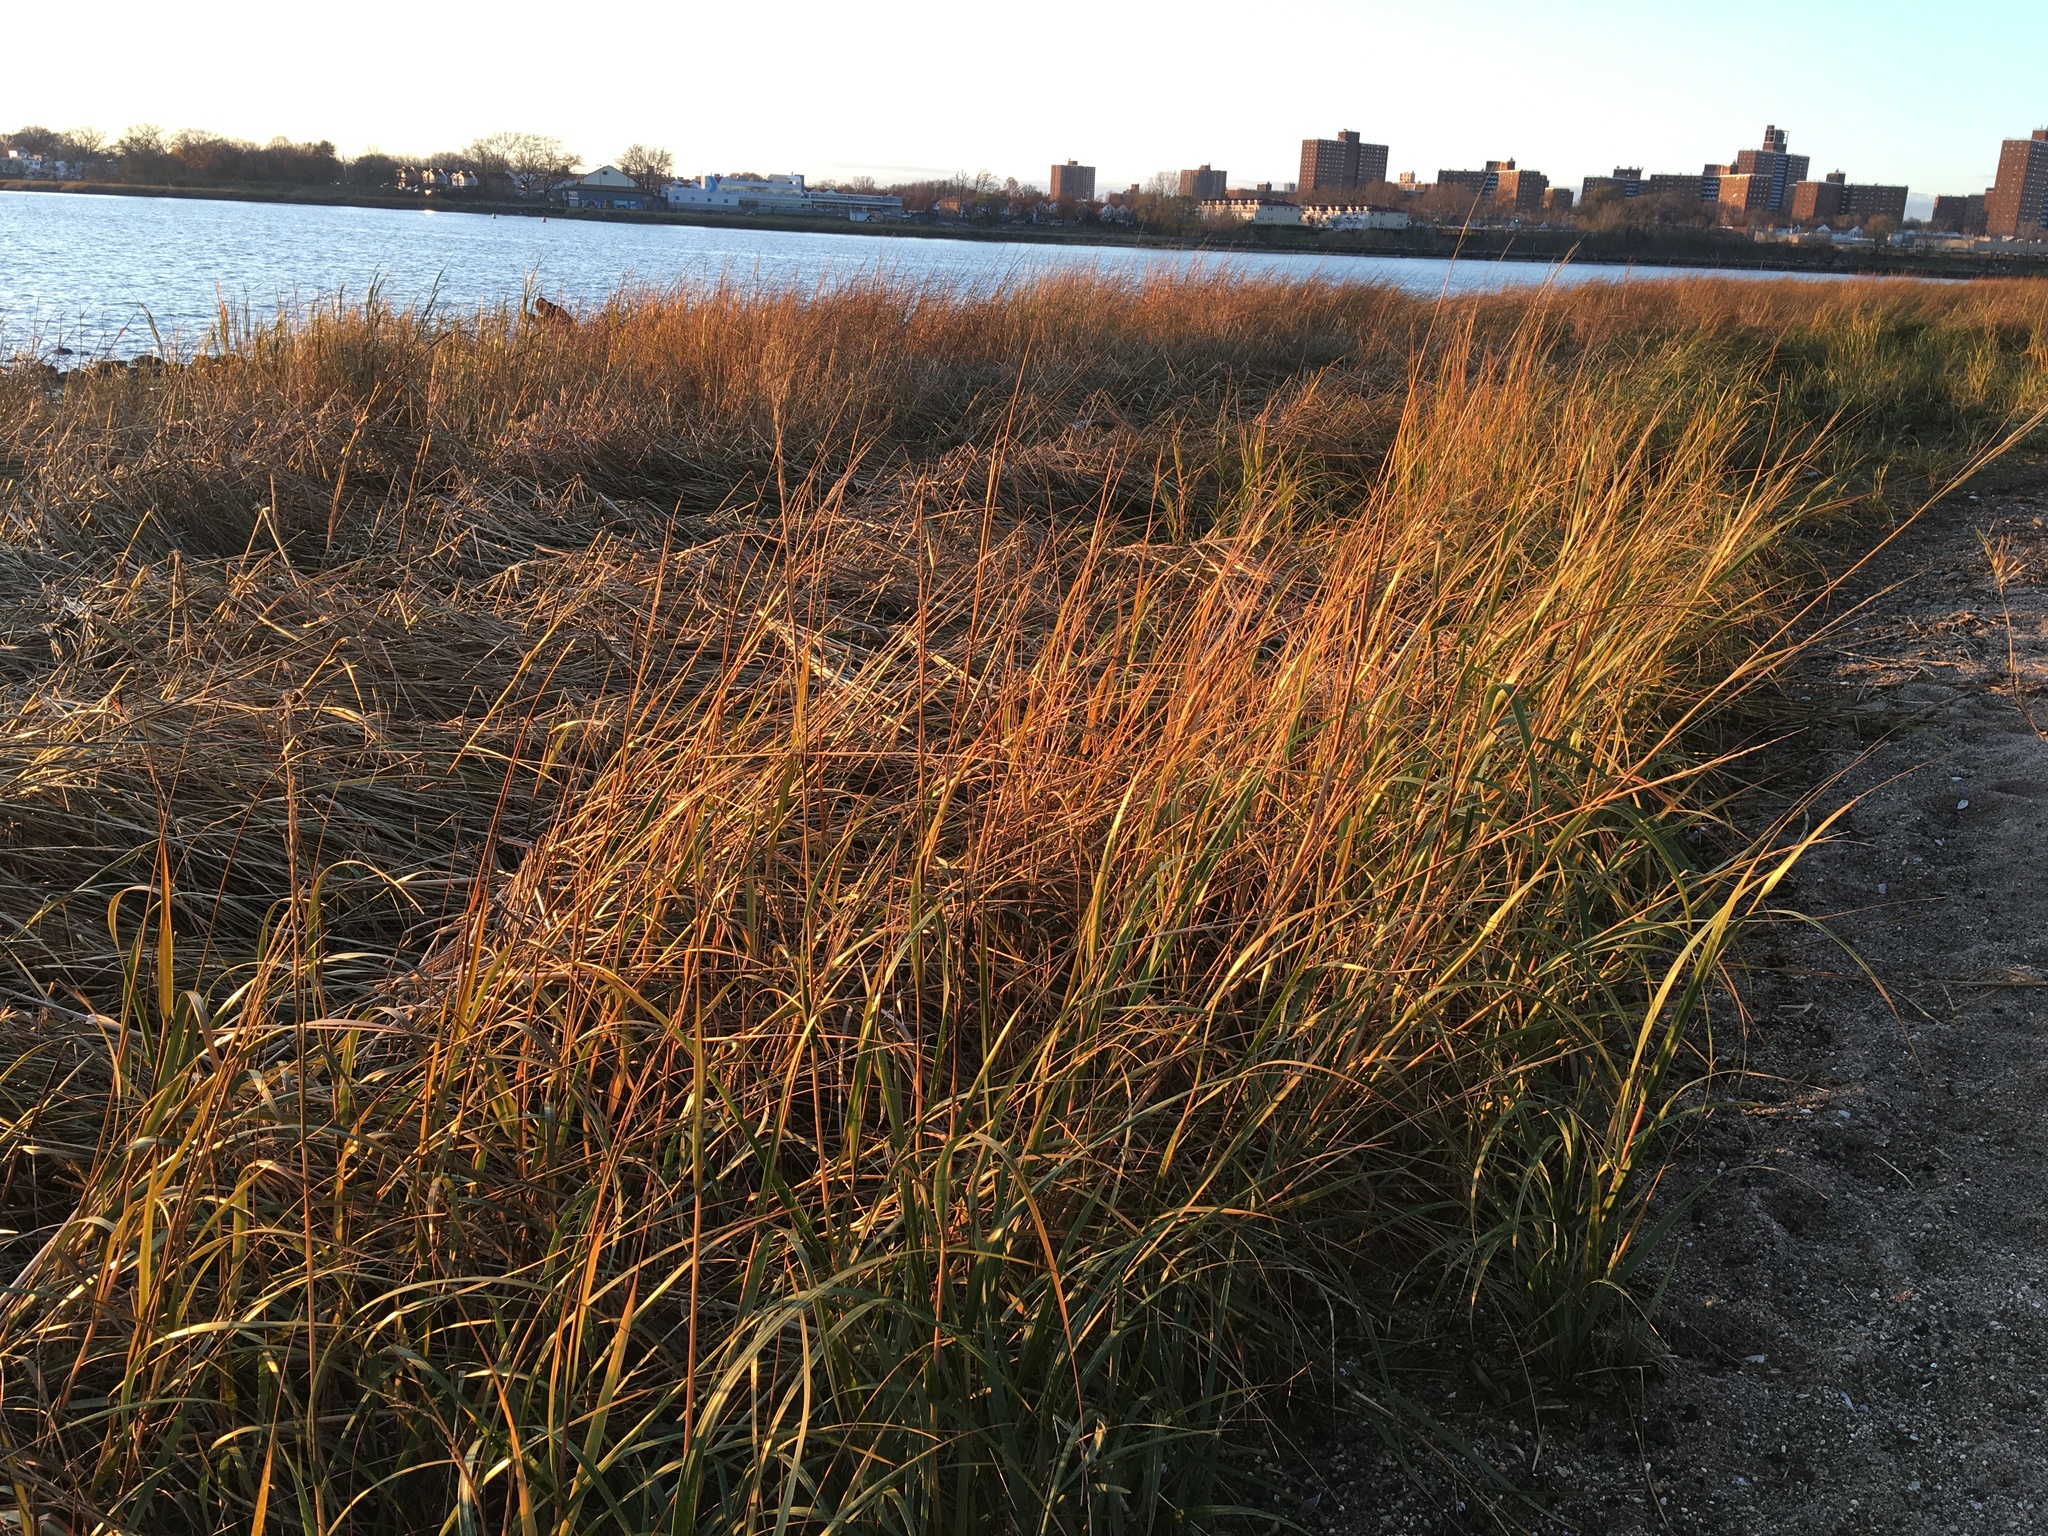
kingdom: Plantae
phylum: Tracheophyta
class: Liliopsida
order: Poales
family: Poaceae
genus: Sporobolus
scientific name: Sporobolus alterniflorus
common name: Atlantic cordgrass
